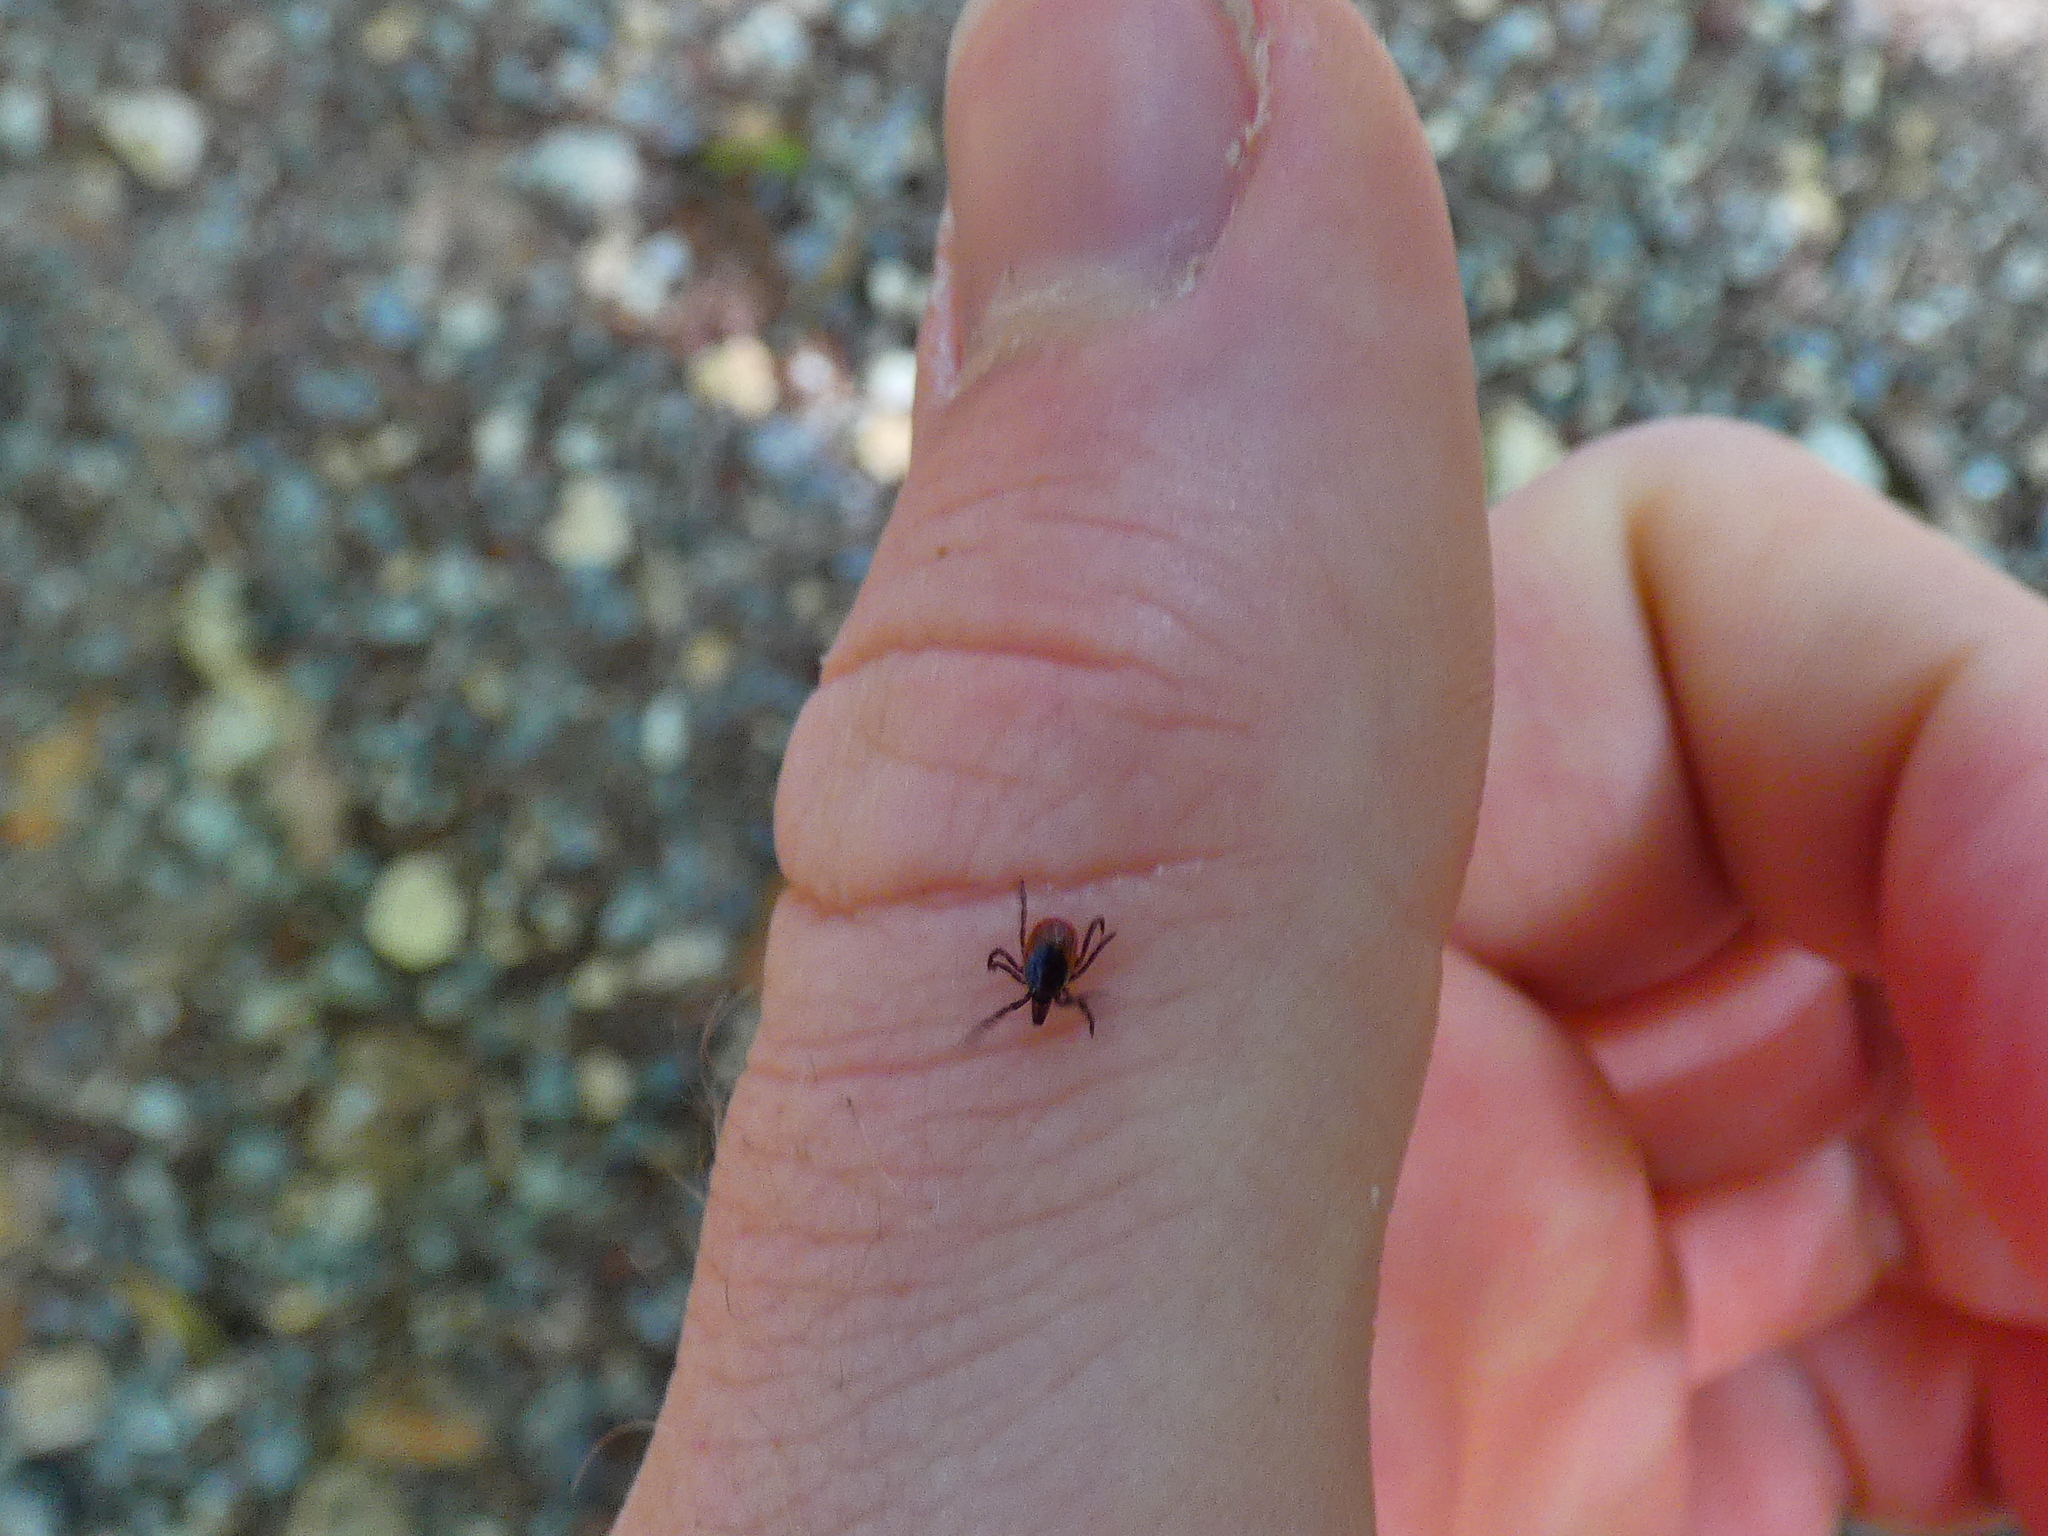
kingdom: Animalia
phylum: Arthropoda
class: Arachnida
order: Ixodida
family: Ixodidae
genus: Ixodes
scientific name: Ixodes ricinus
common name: Castor bean tick
